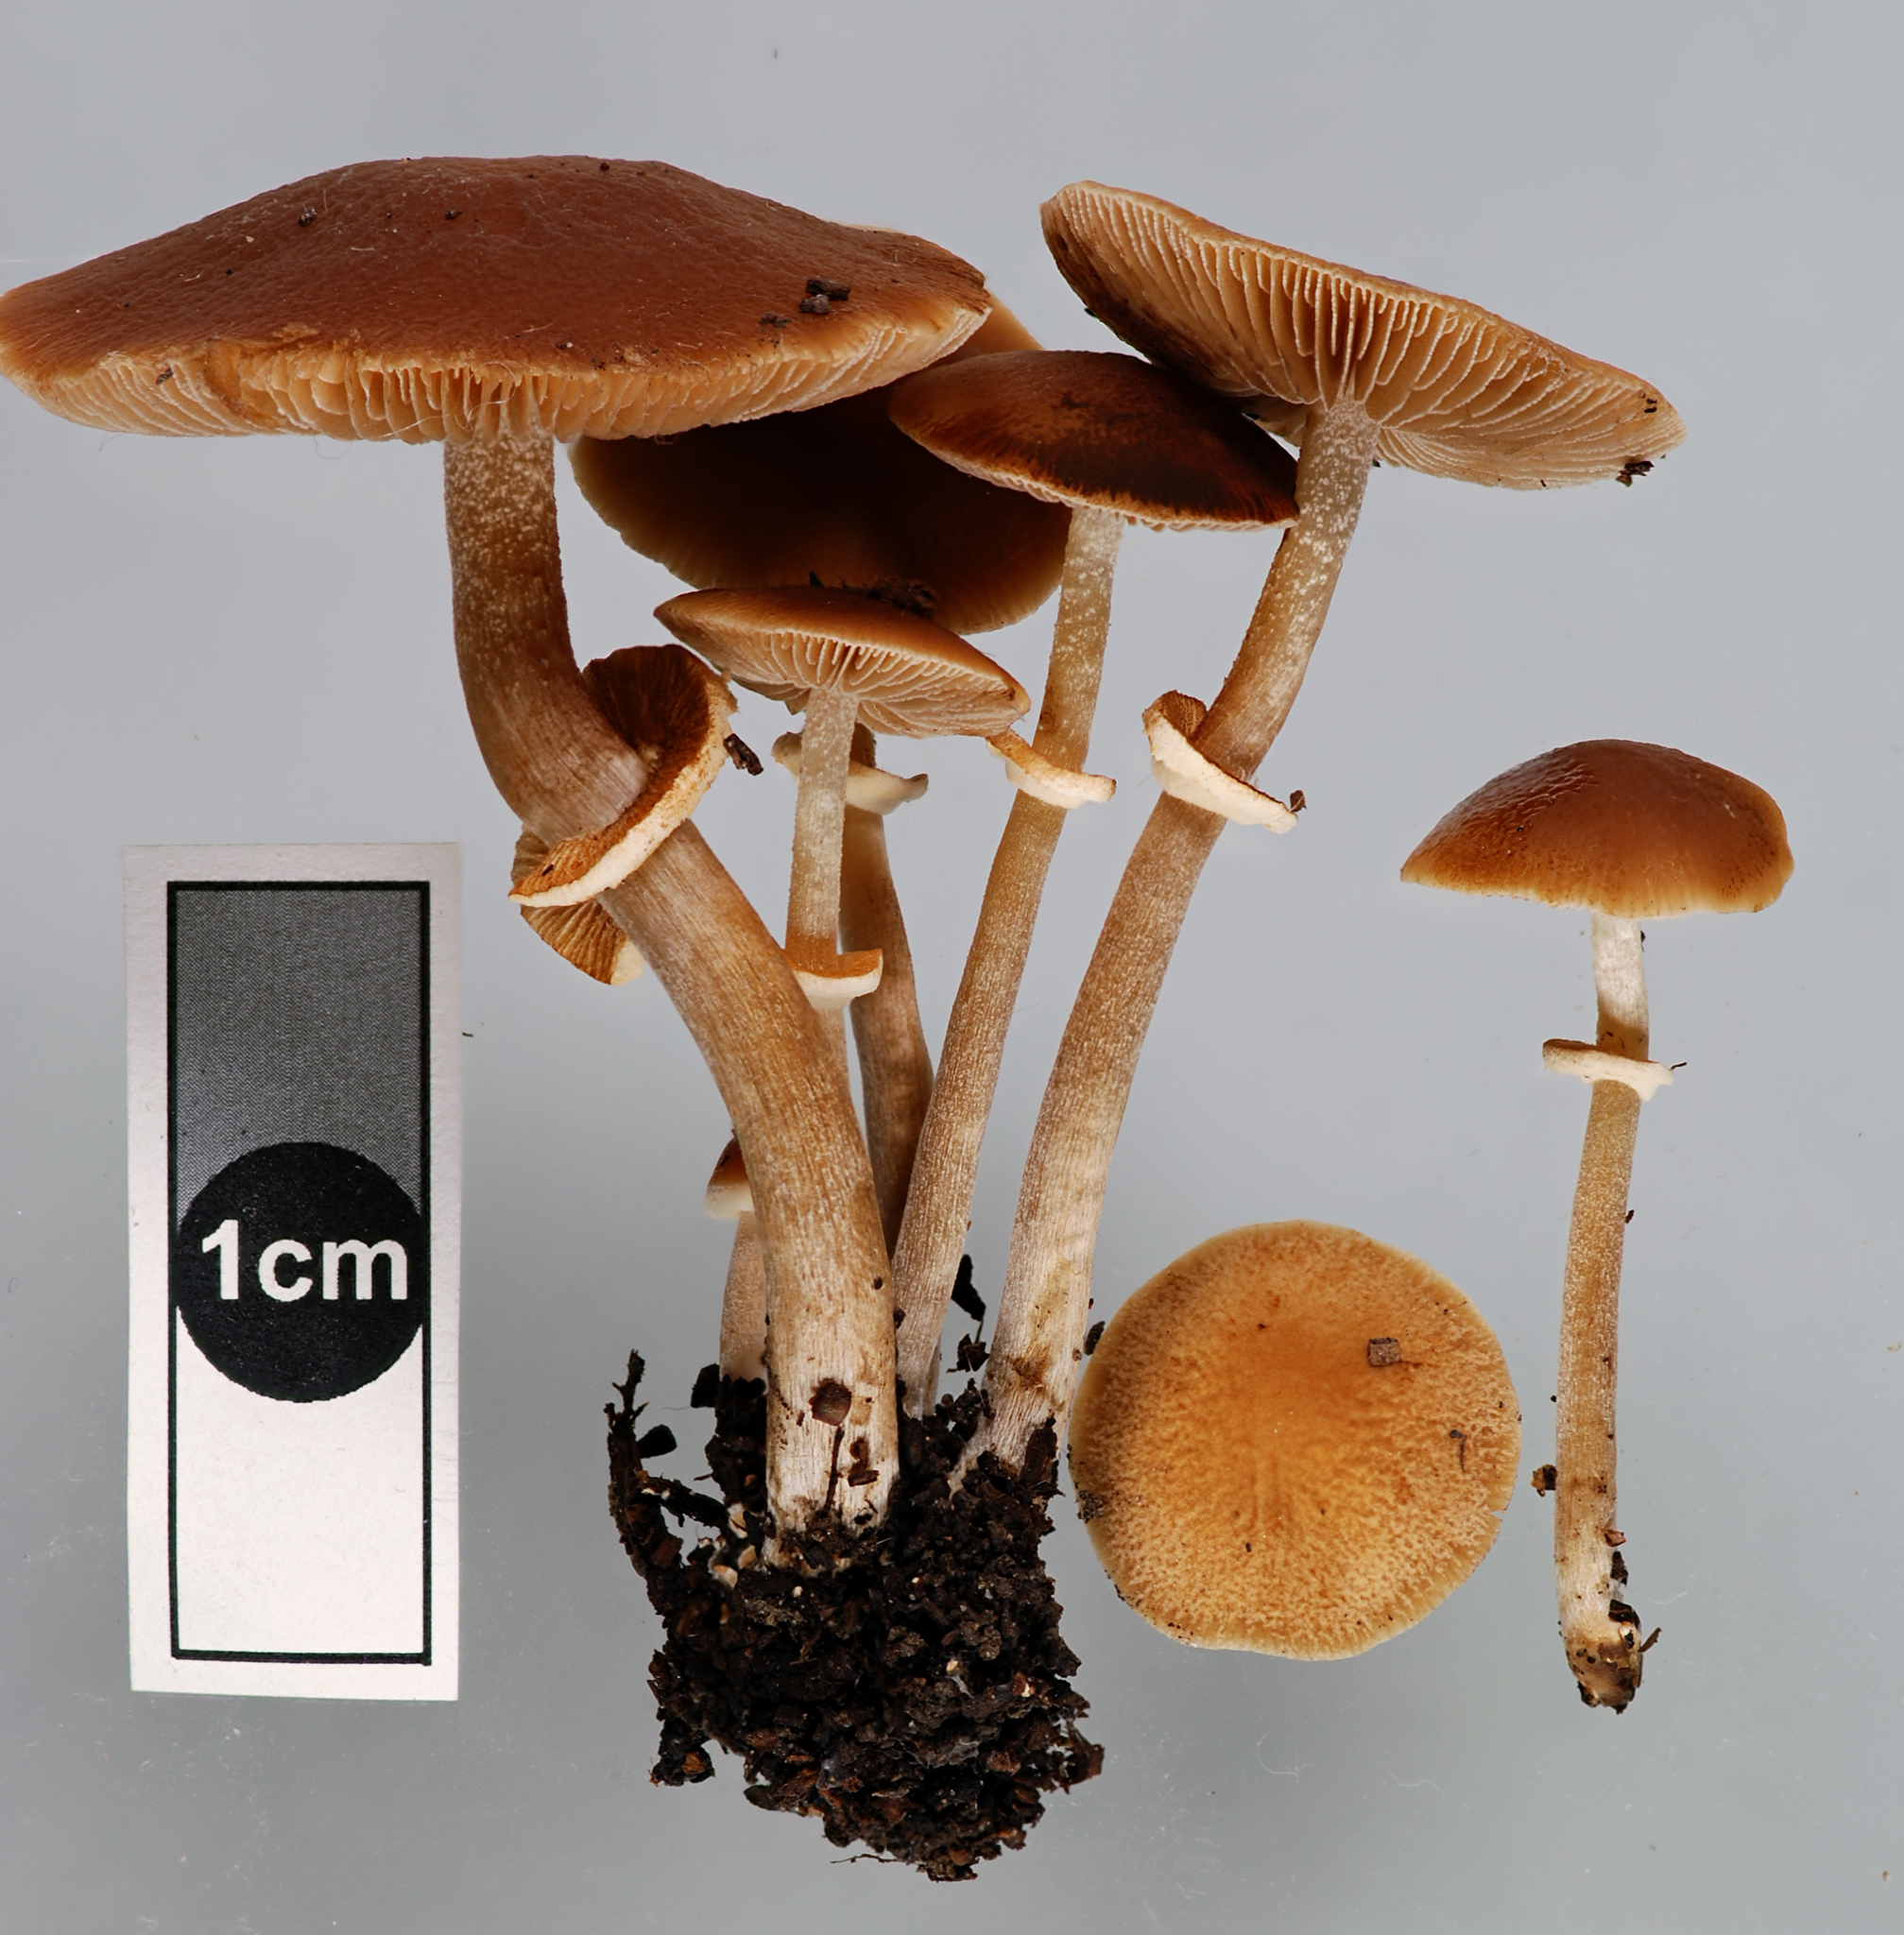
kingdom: Fungi
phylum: Basidiomycota
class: Agaricomycetes
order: Agaricales
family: Bolbitiaceae
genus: Conocybe
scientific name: Conocybe utricystidiata
